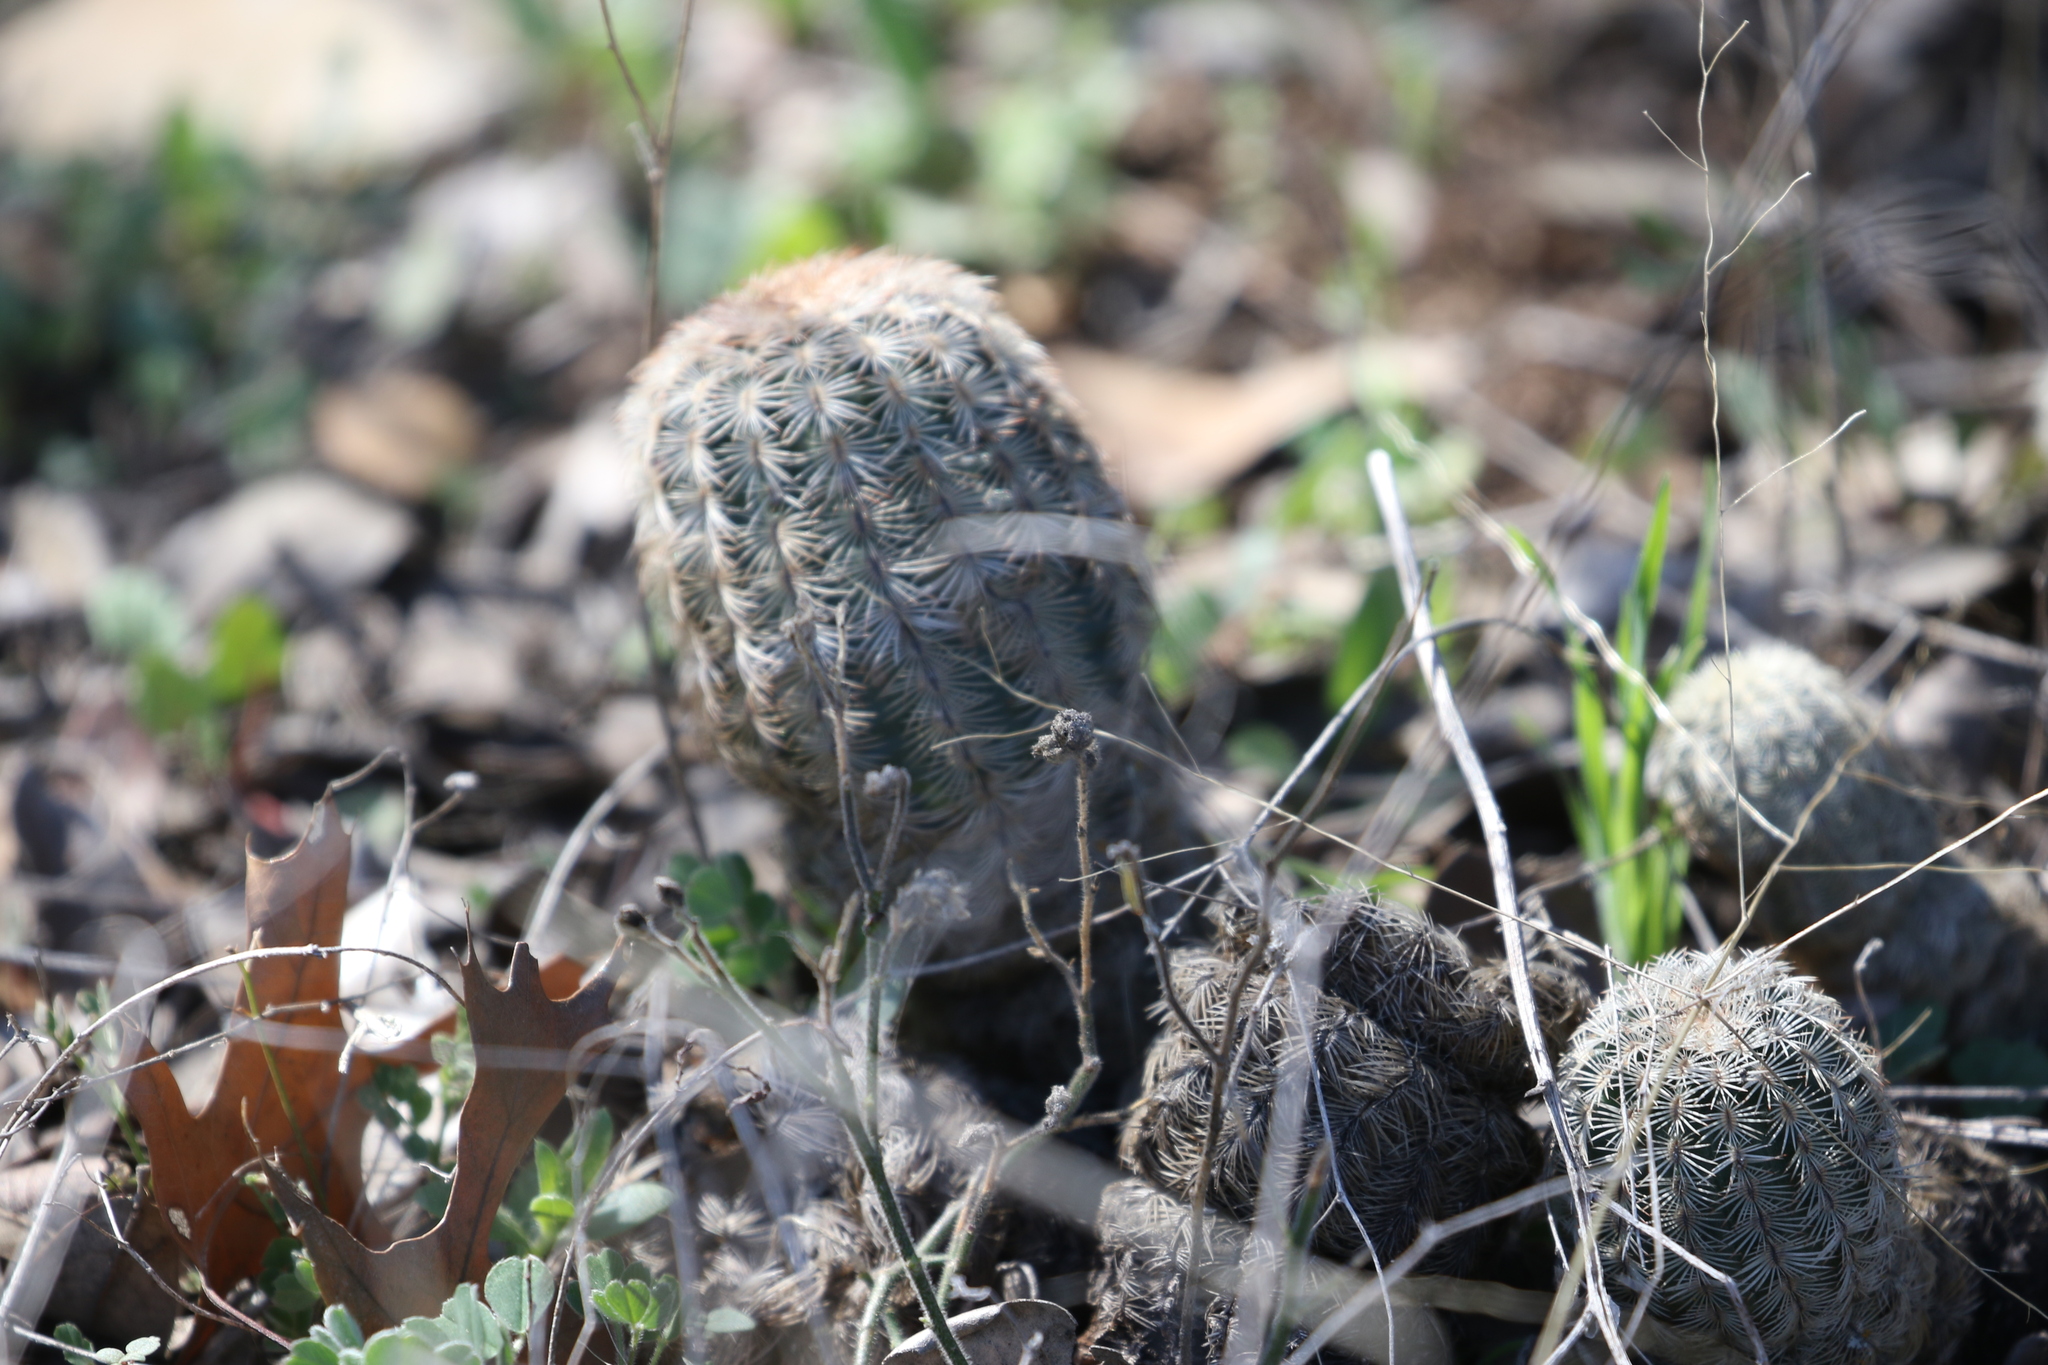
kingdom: Plantae
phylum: Tracheophyta
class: Magnoliopsida
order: Caryophyllales
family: Cactaceae
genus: Echinocereus
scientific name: Echinocereus reichenbachii
